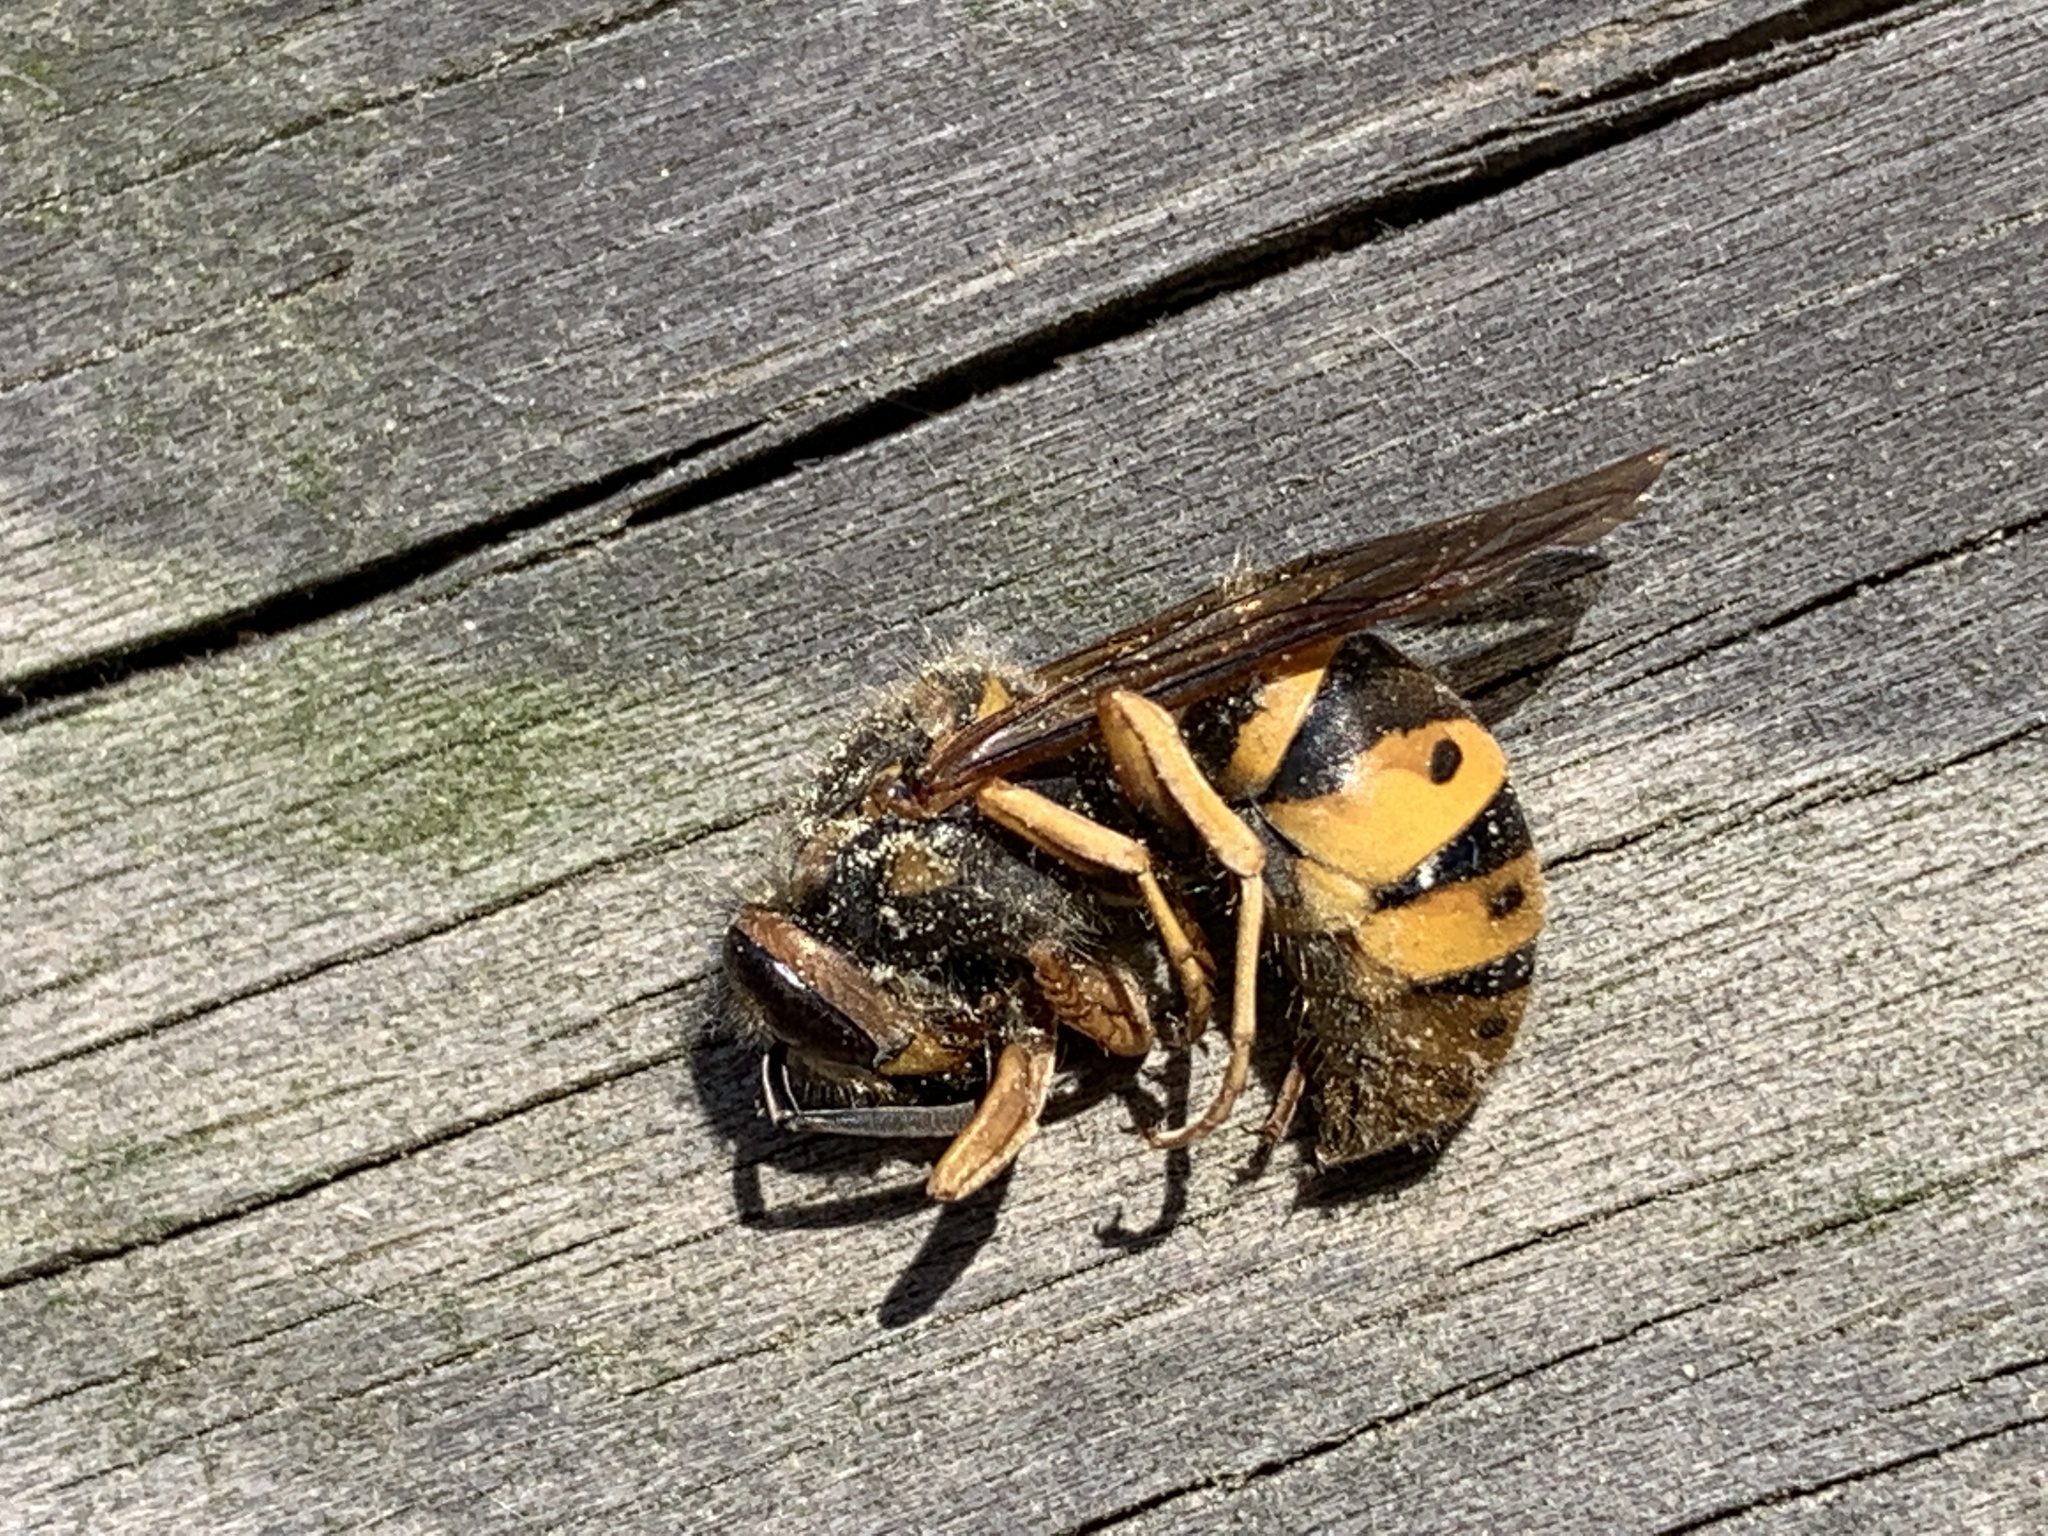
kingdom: Animalia
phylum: Arthropoda
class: Insecta
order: Hymenoptera
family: Vespidae
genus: Vespula
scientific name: Vespula maculifrons
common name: Eastern yellowjacket
